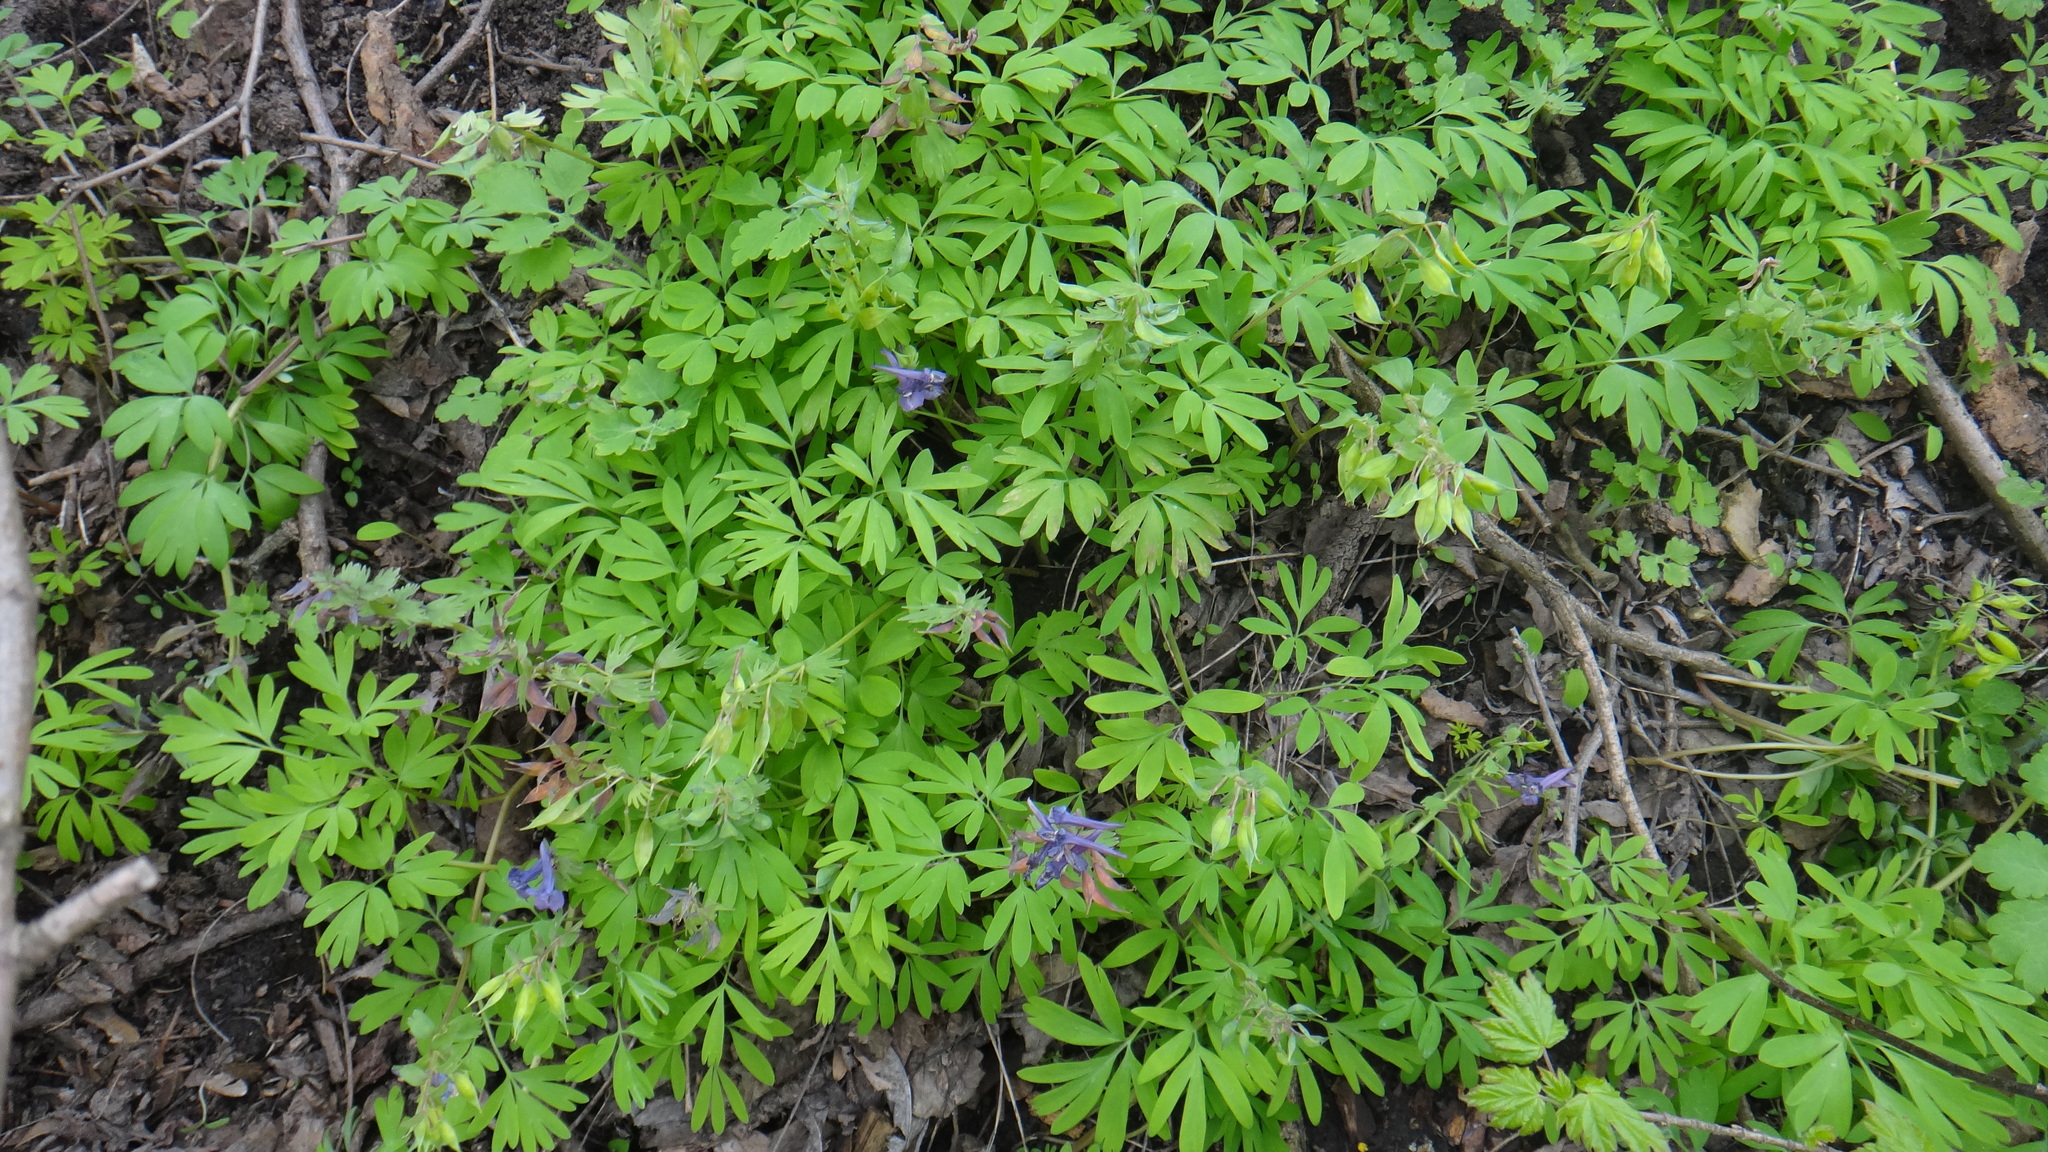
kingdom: Plantae
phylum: Tracheophyta
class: Magnoliopsida
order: Ranunculales
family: Papaveraceae
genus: Corydalis
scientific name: Corydalis solida
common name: Bird-in-a-bush
